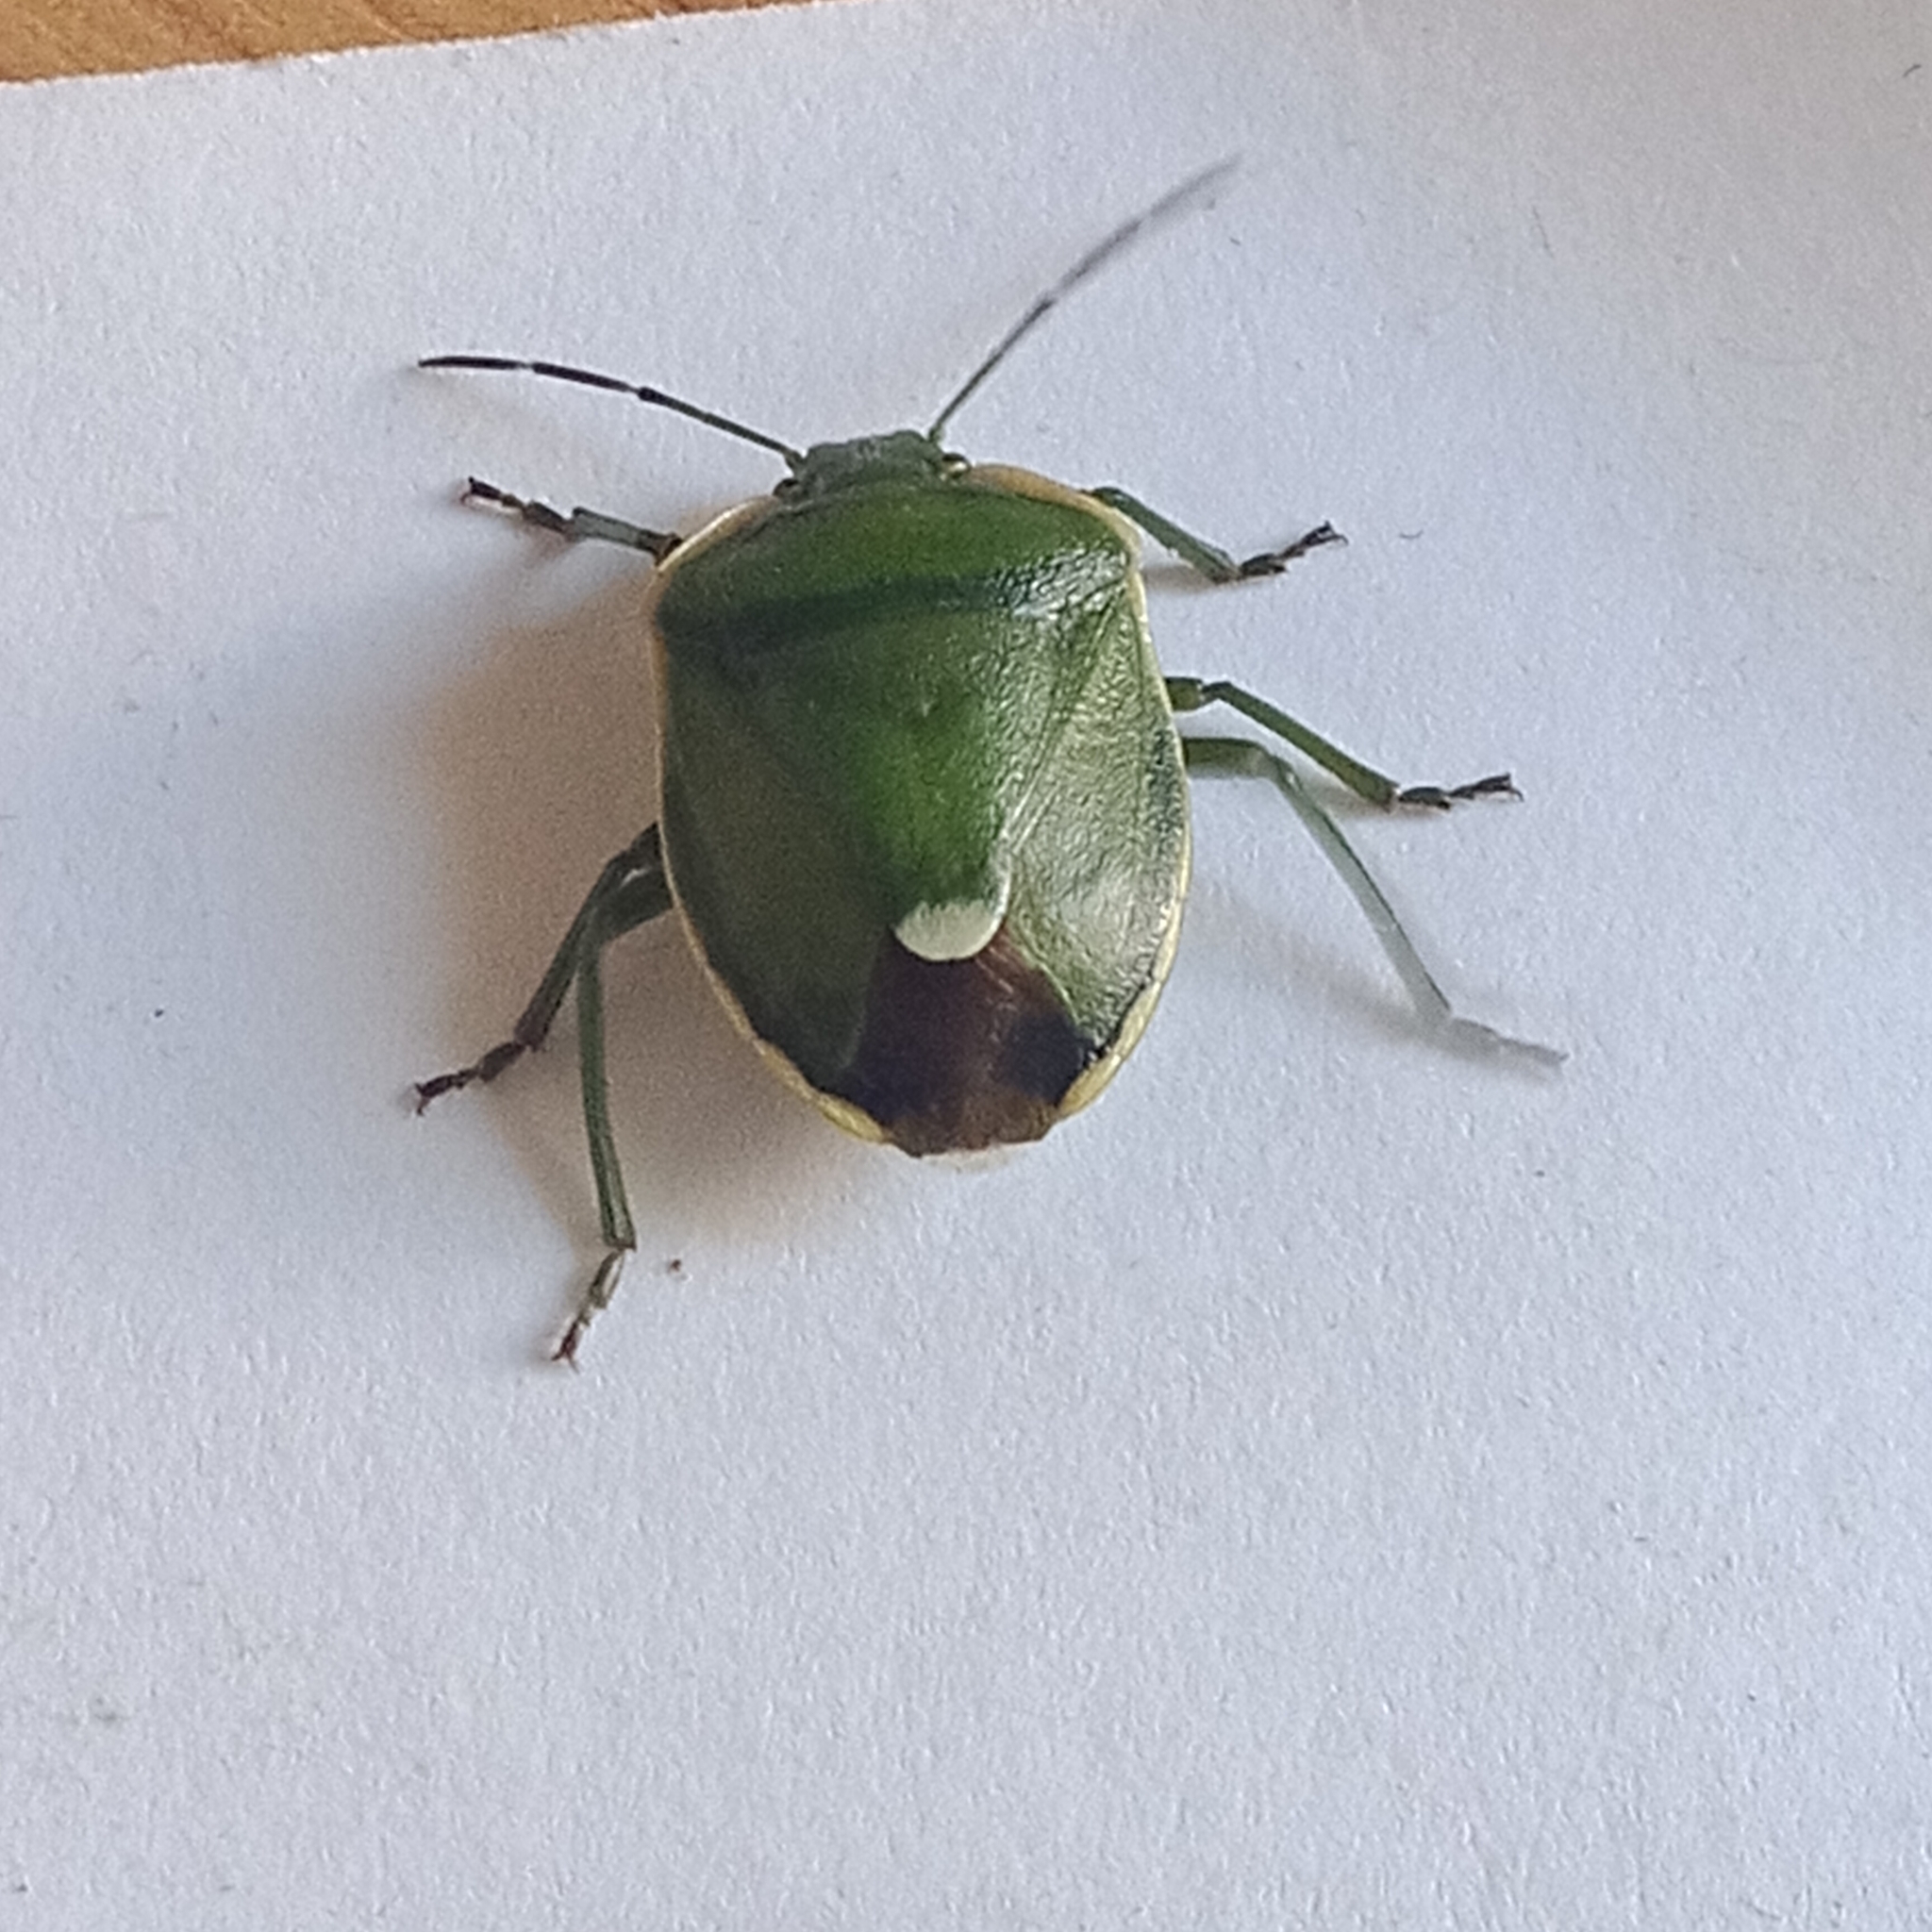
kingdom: Animalia
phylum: Arthropoda
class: Insecta
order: Hemiptera
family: Pentatomidae
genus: Chlorochroa
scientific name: Chlorochroa juniperina
